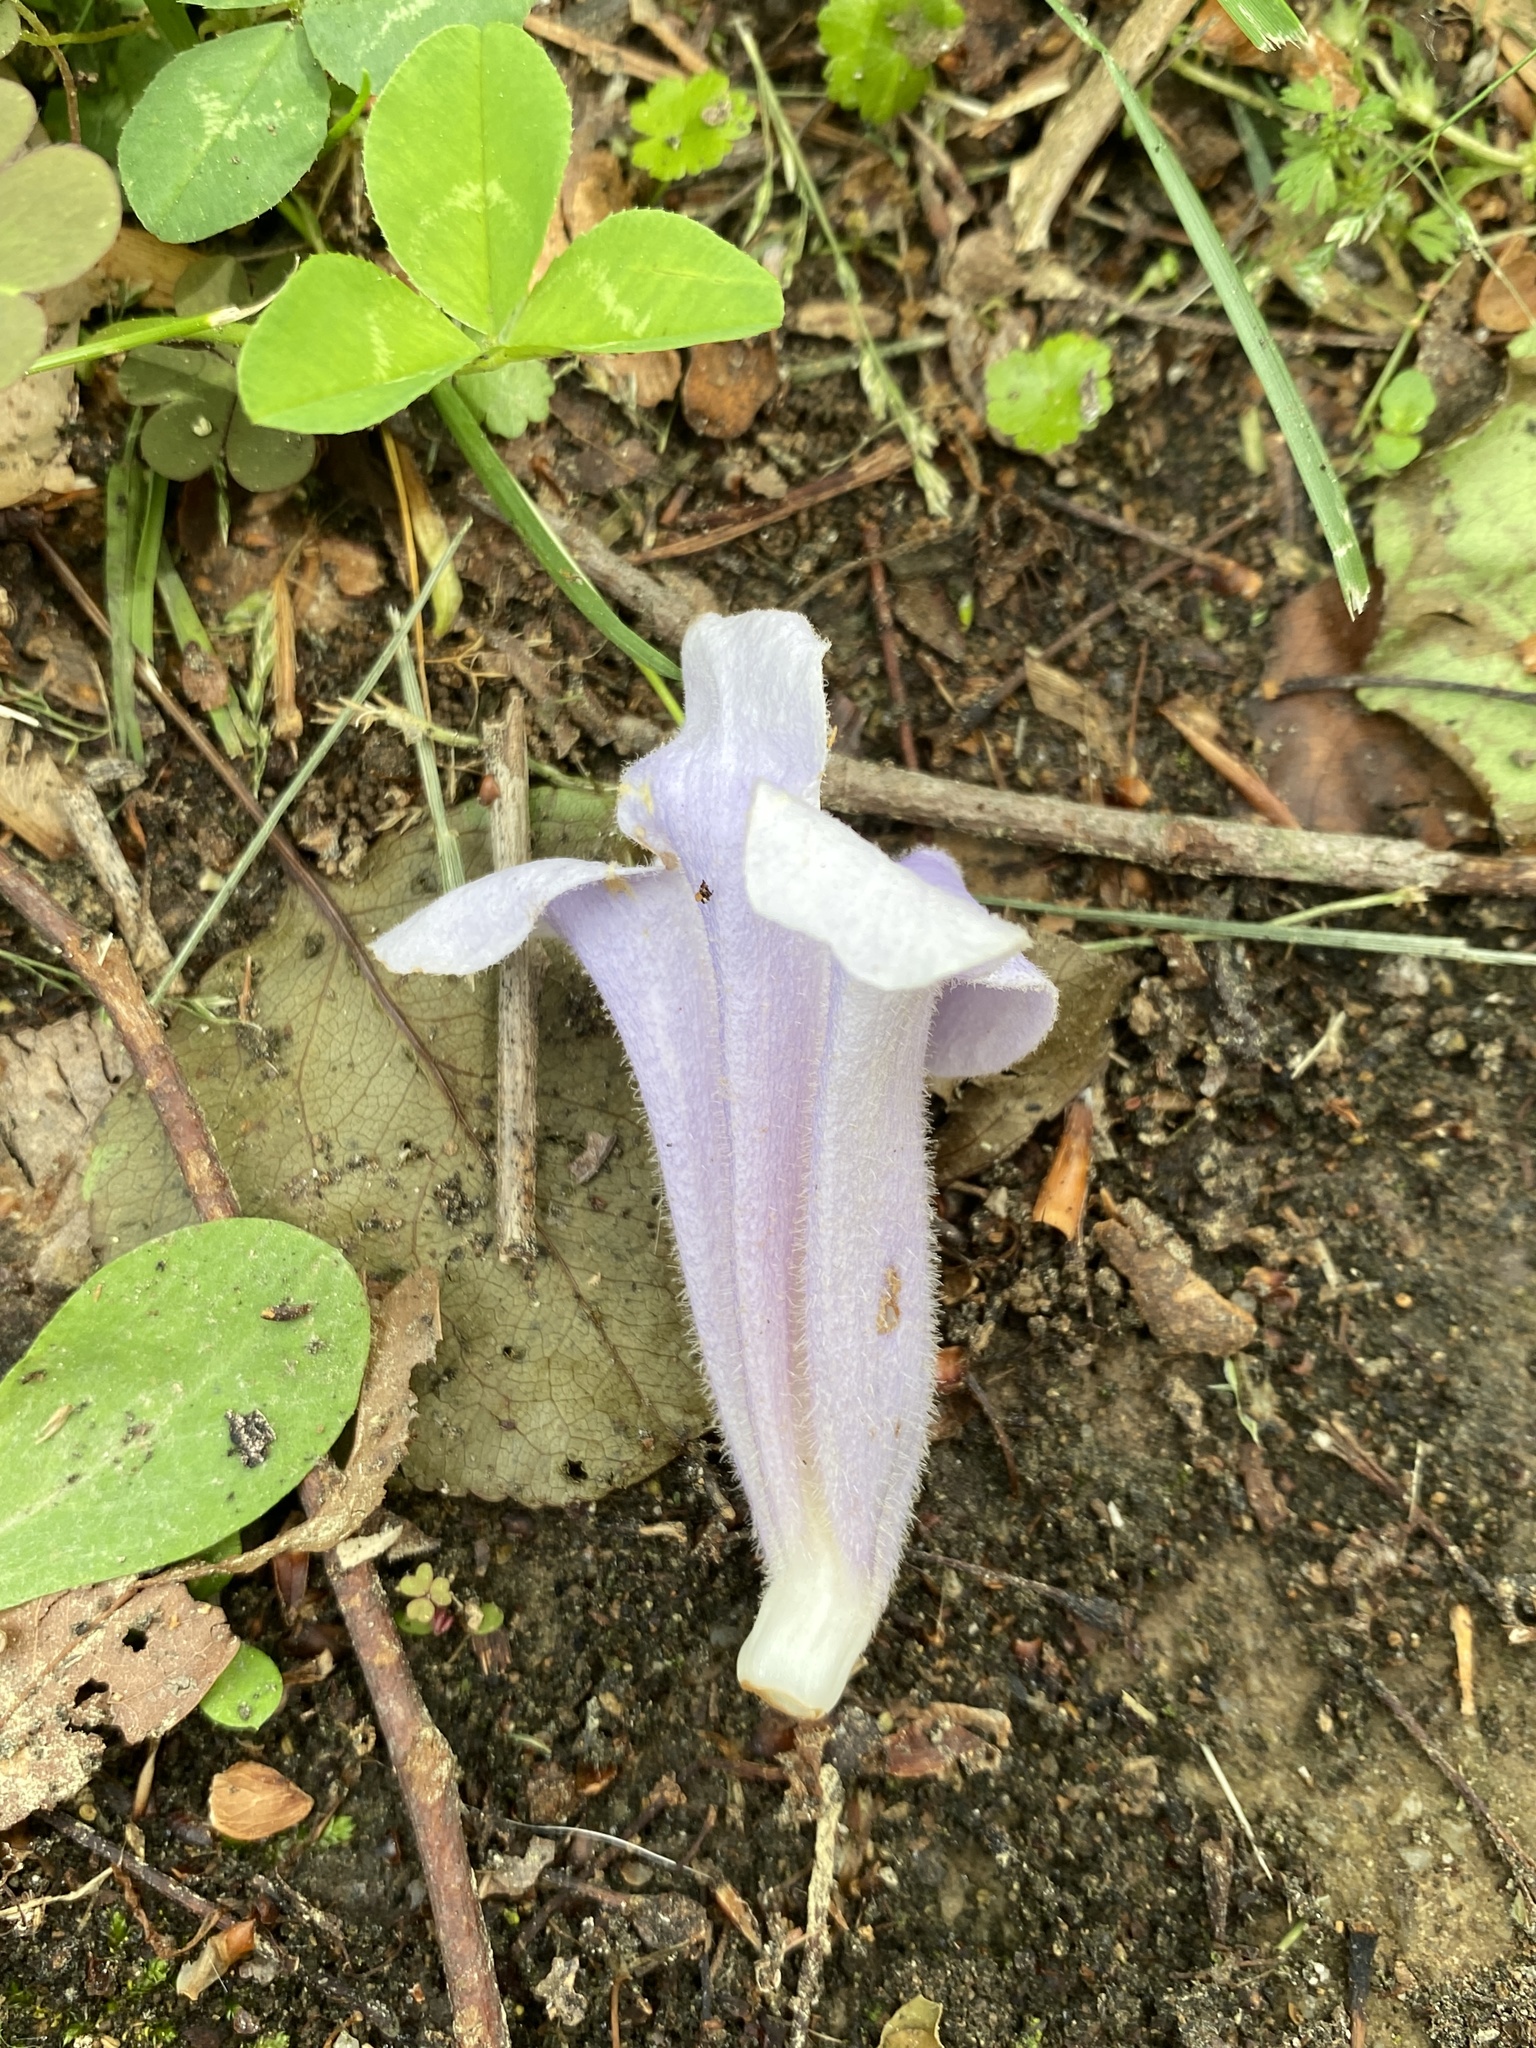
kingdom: Plantae
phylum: Tracheophyta
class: Magnoliopsida
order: Lamiales
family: Paulowniaceae
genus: Paulownia
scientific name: Paulownia tomentosa
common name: Foxglove-tree
